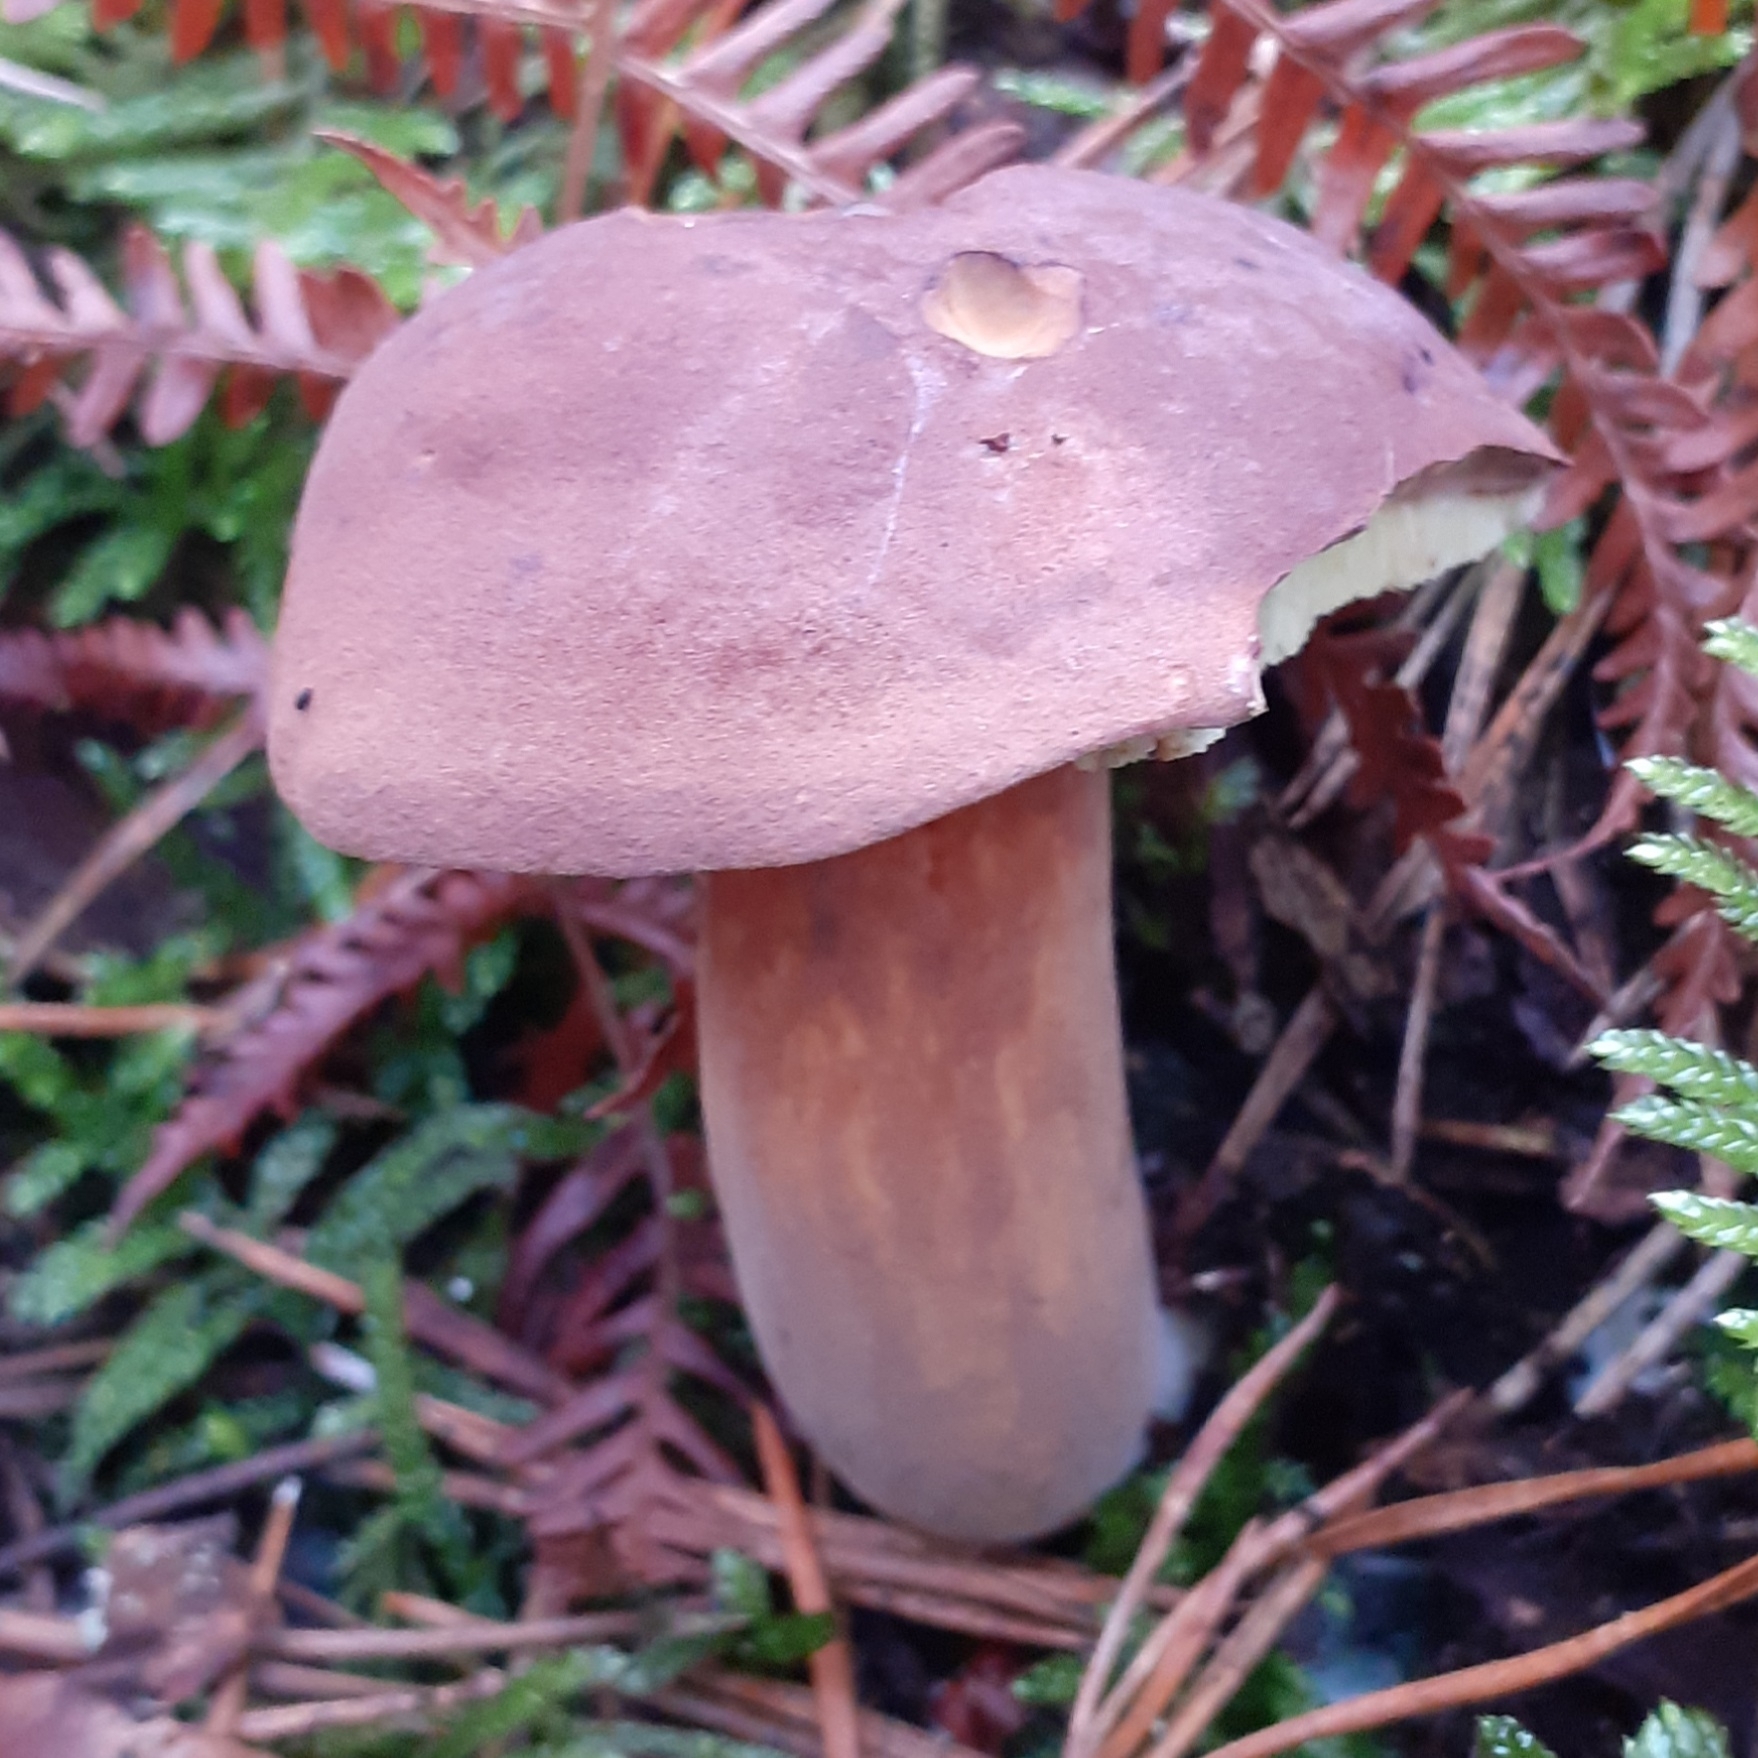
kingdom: Fungi
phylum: Basidiomycota
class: Agaricomycetes
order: Boletales
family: Boletaceae
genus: Imleria
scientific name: Imleria badia
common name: Bay bolete
